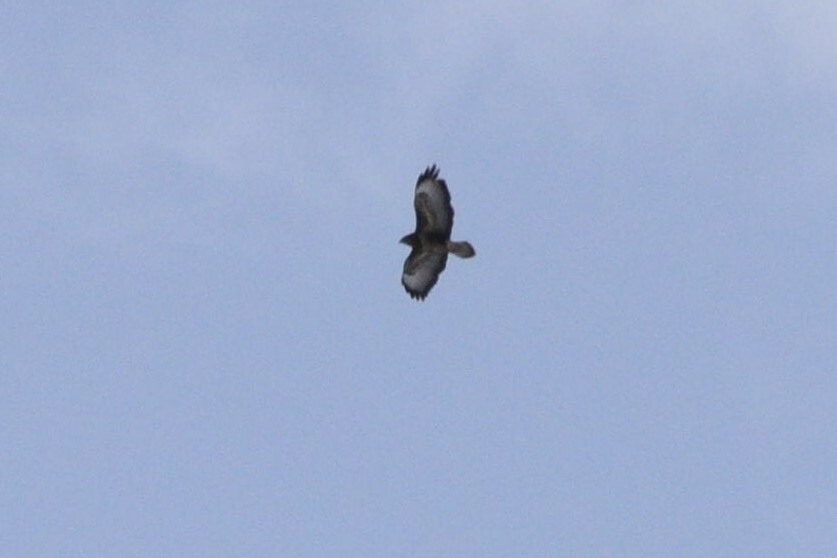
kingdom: Animalia
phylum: Chordata
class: Aves
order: Accipitriformes
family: Accipitridae
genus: Buteo
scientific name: Buteo buteo
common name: Common buzzard
